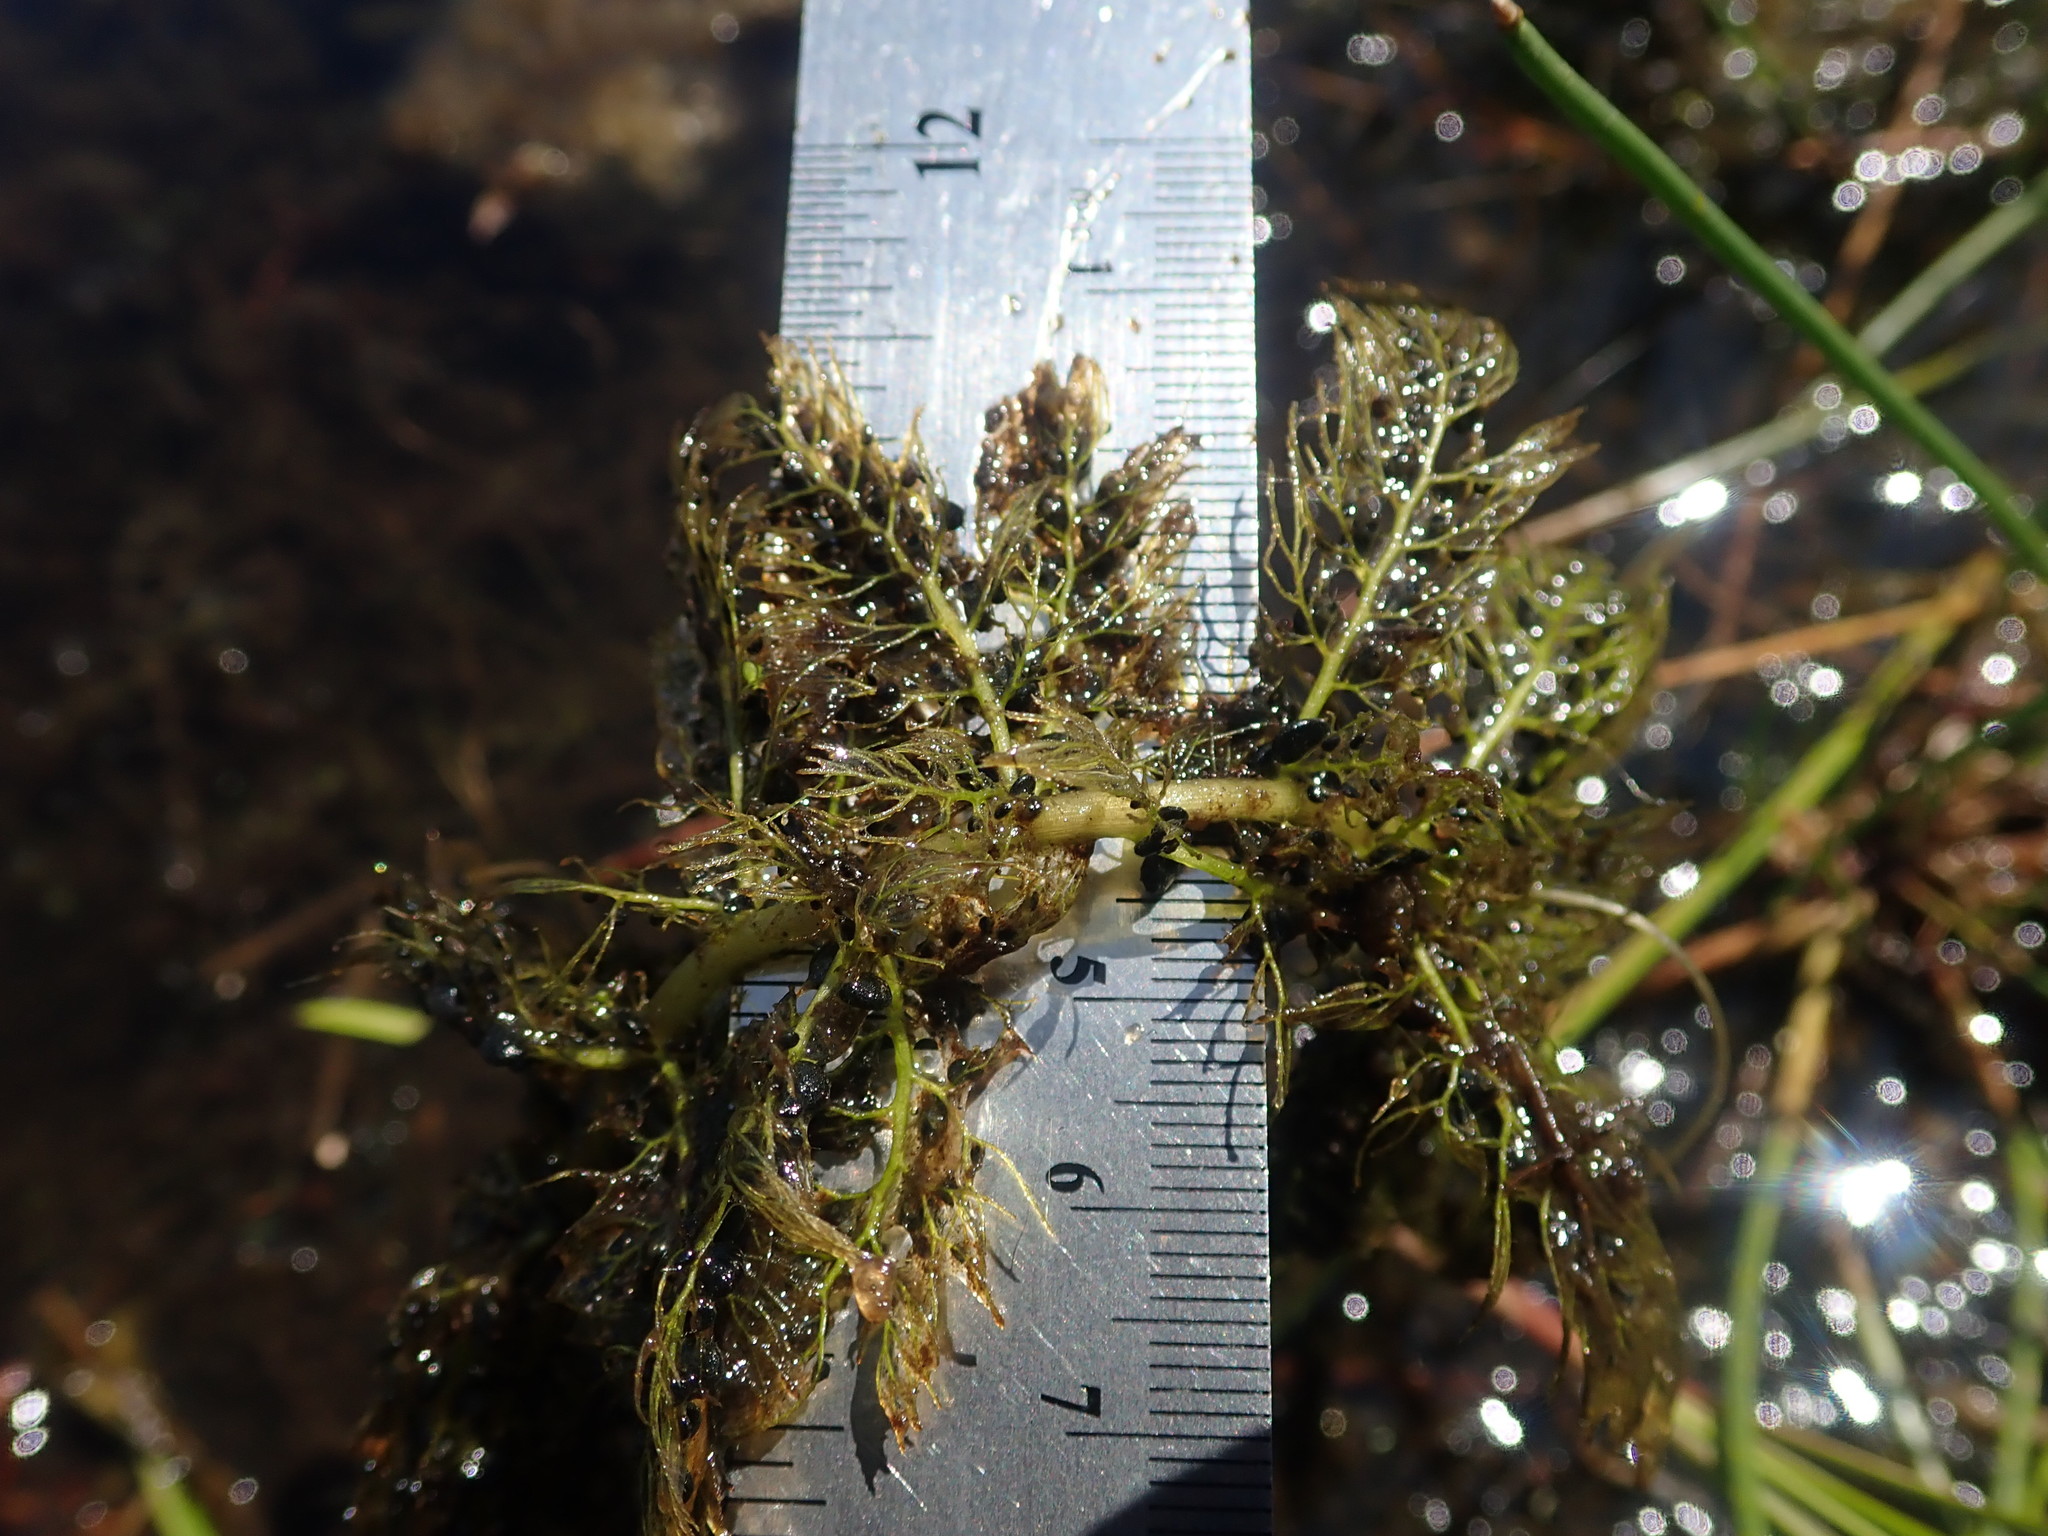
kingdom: Plantae
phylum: Tracheophyta
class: Magnoliopsida
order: Lamiales
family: Lentibulariaceae
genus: Utricularia
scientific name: Utricularia macrorhiza
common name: Common bladderwort
